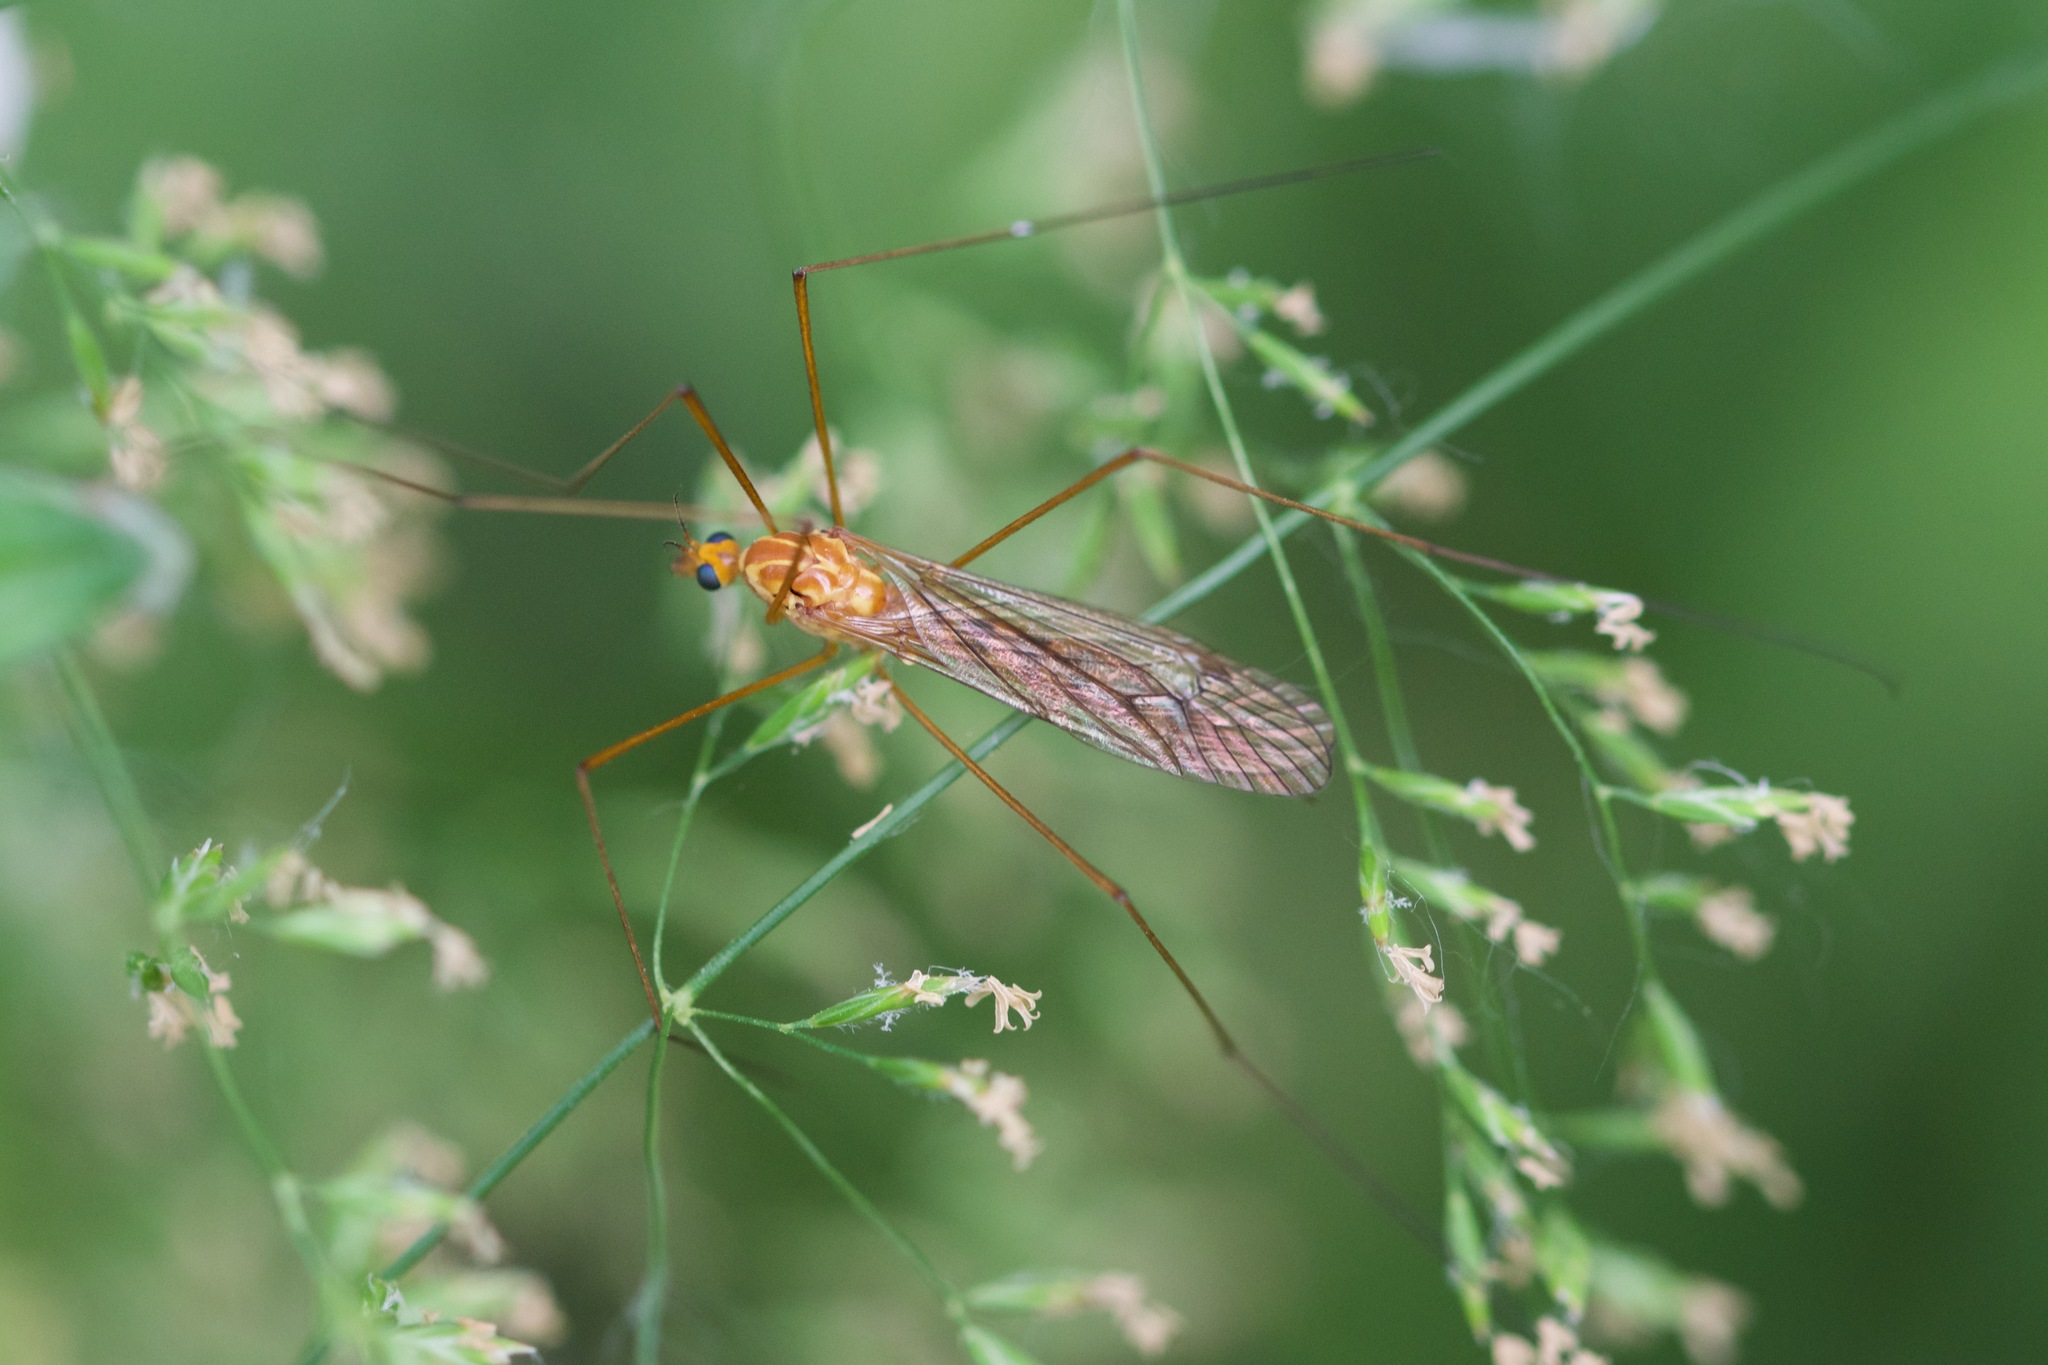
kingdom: Animalia
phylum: Arthropoda
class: Insecta
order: Diptera
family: Tipulidae
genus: Nephrotoma
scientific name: Nephrotoma ferruginea
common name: Ferruginous tiger crane fly
